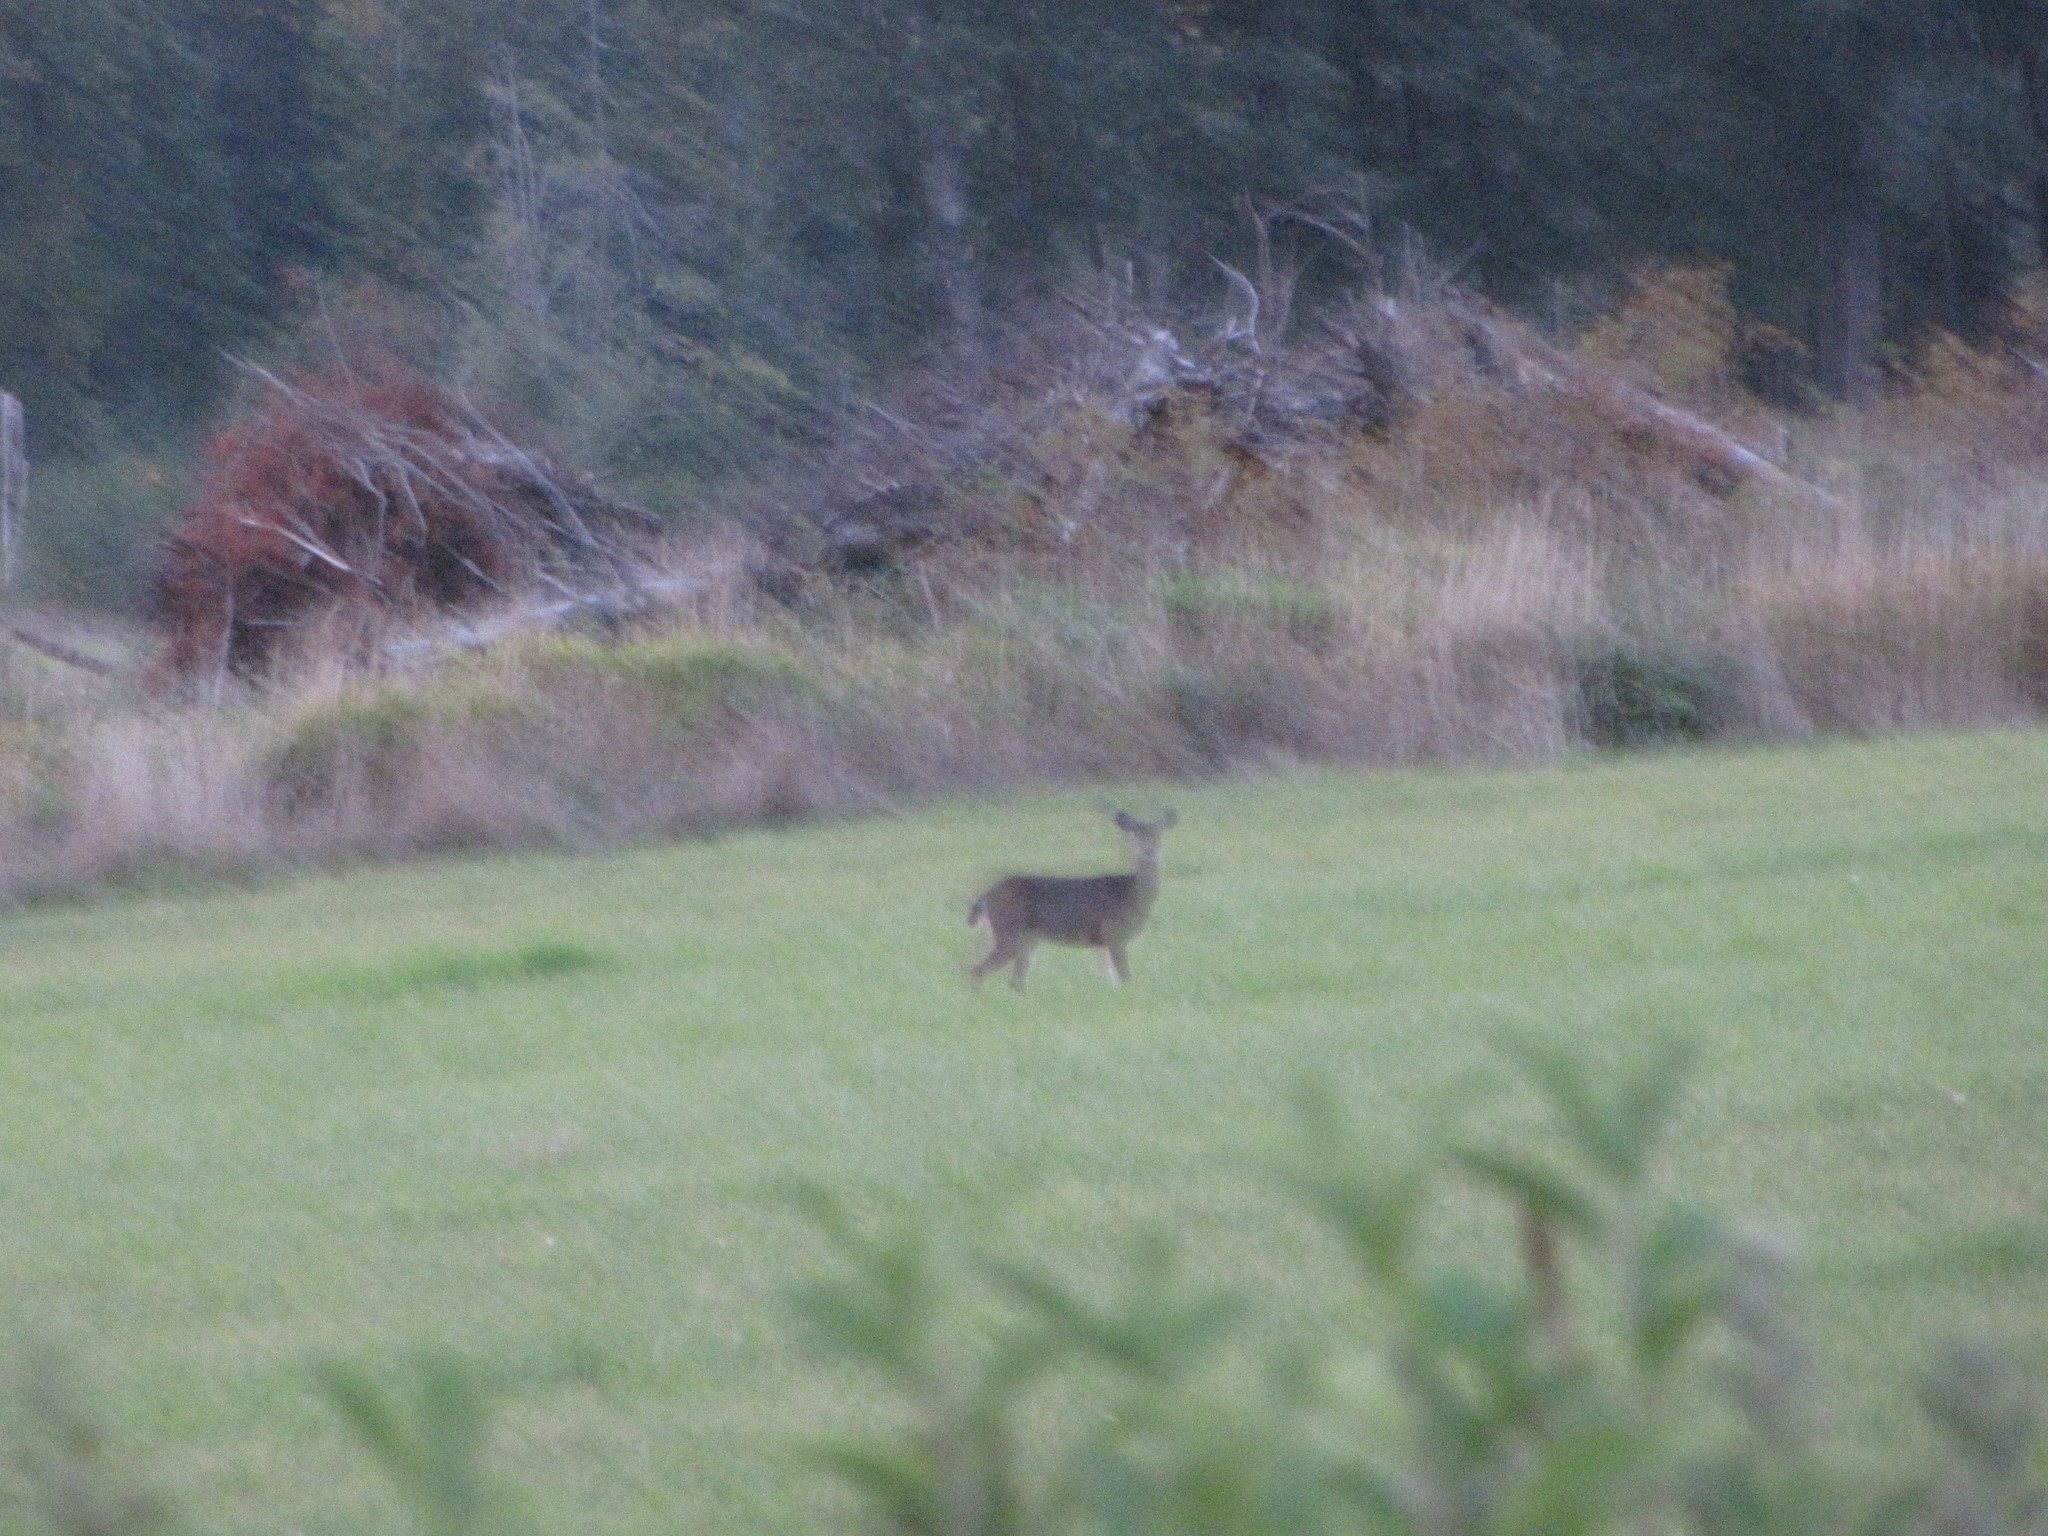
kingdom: Animalia
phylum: Chordata
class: Mammalia
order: Artiodactyla
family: Cervidae
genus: Odocoileus
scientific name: Odocoileus hemionus
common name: Mule deer
